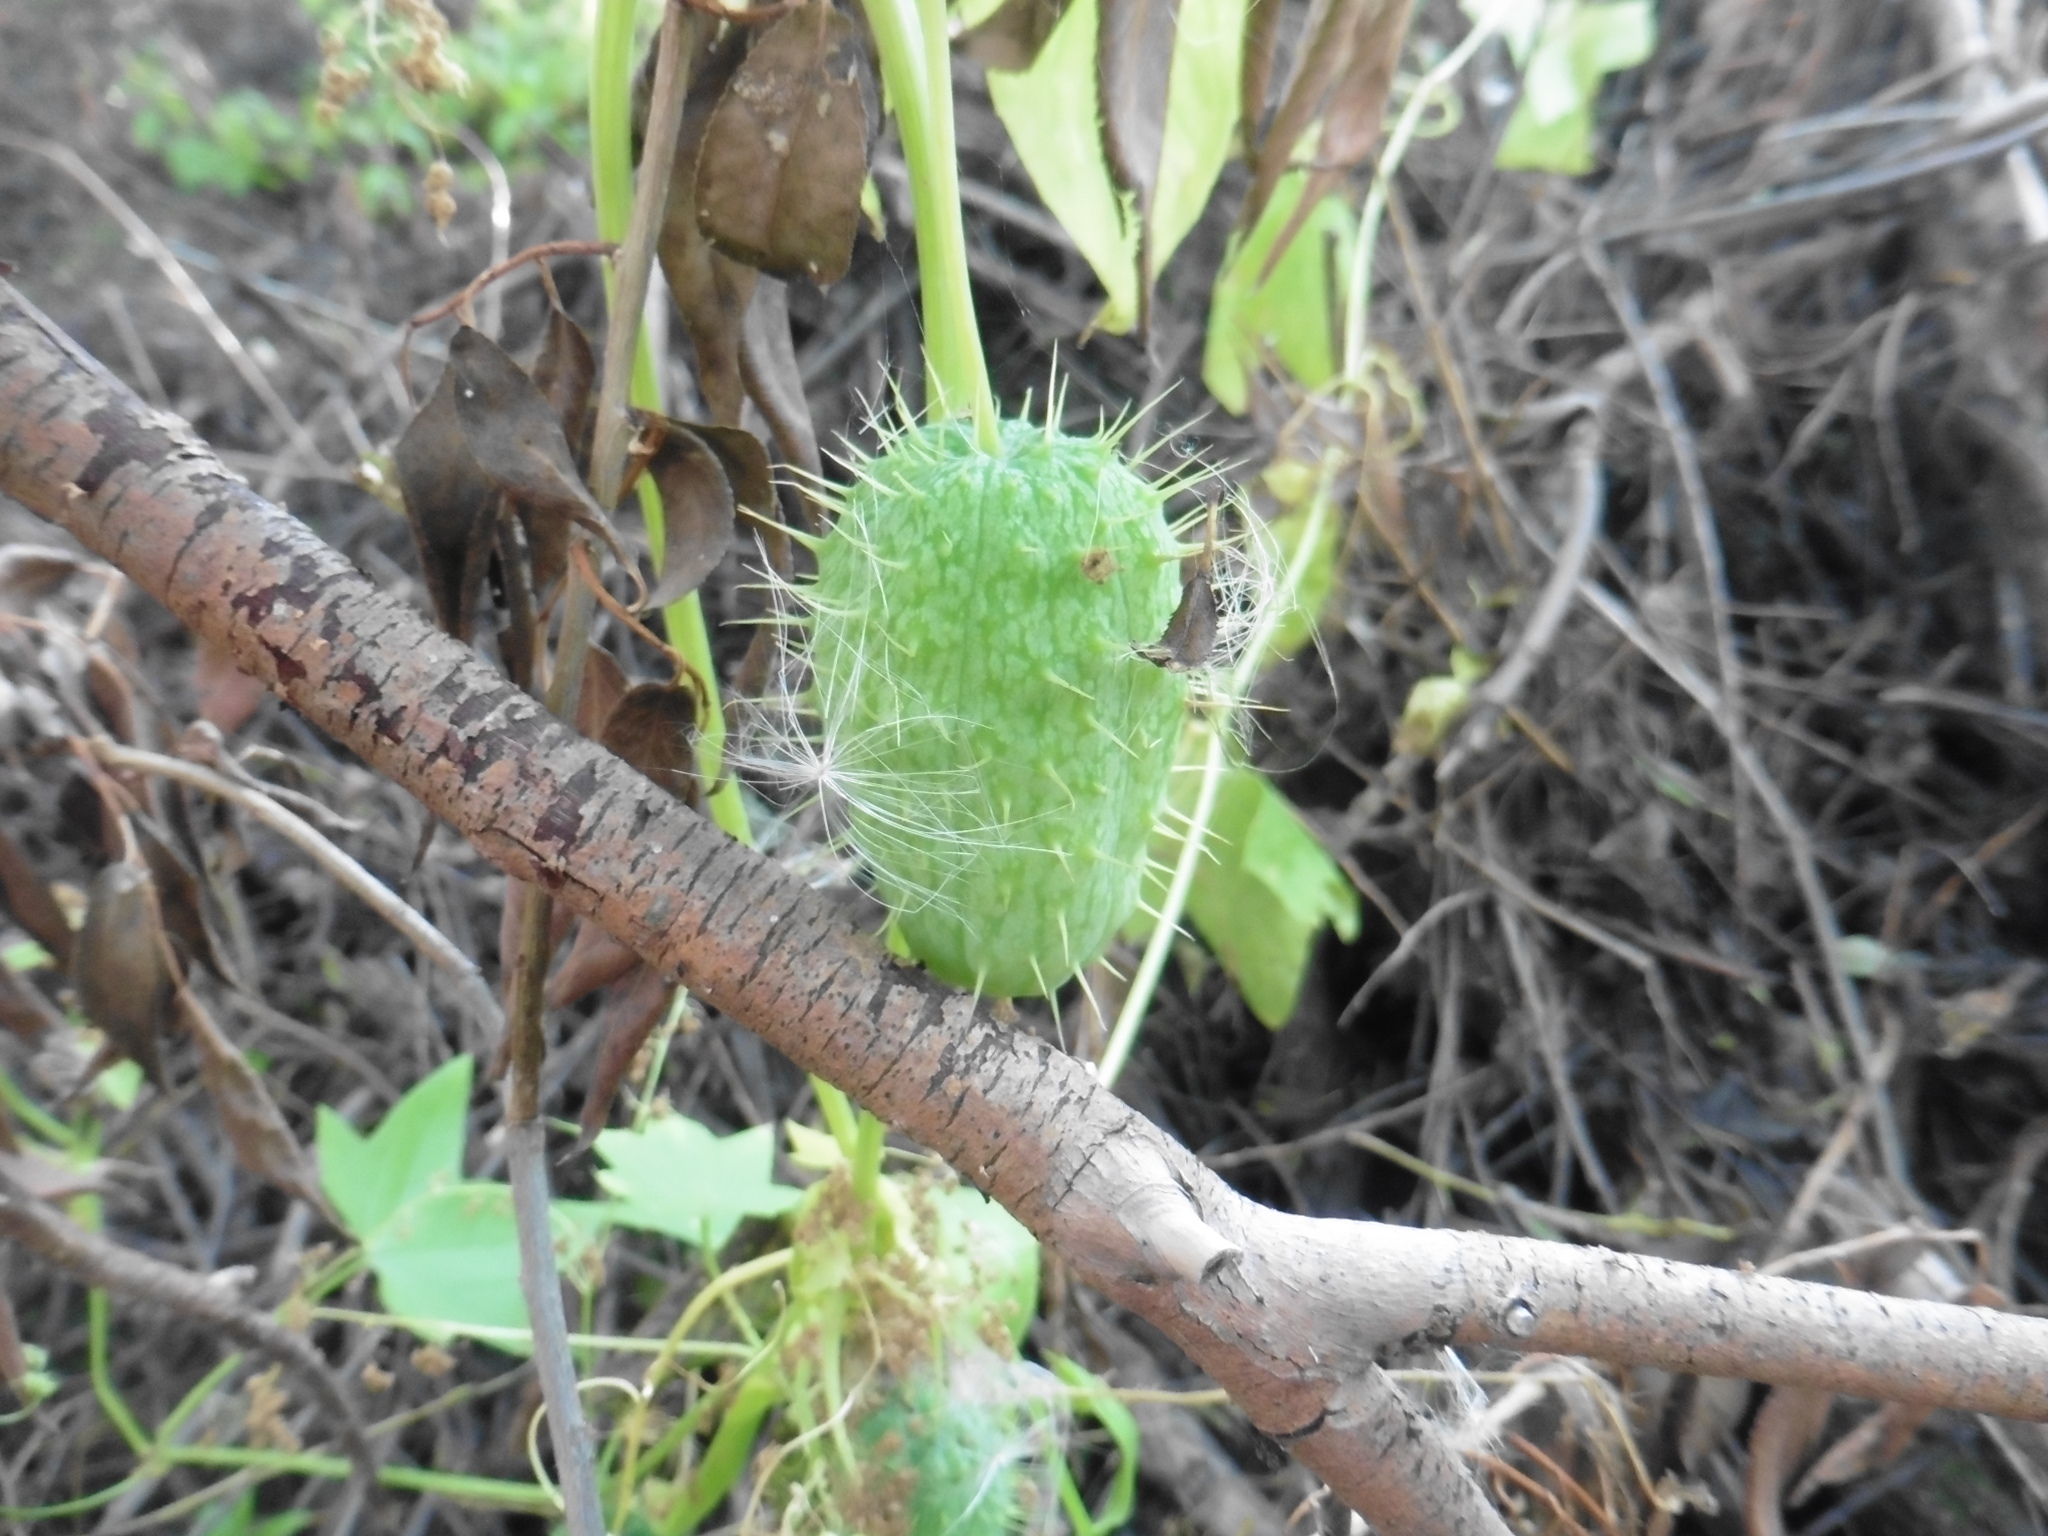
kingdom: Plantae
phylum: Tracheophyta
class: Magnoliopsida
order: Cucurbitales
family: Cucurbitaceae
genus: Echinocystis
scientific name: Echinocystis lobata
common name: Wild cucumber
